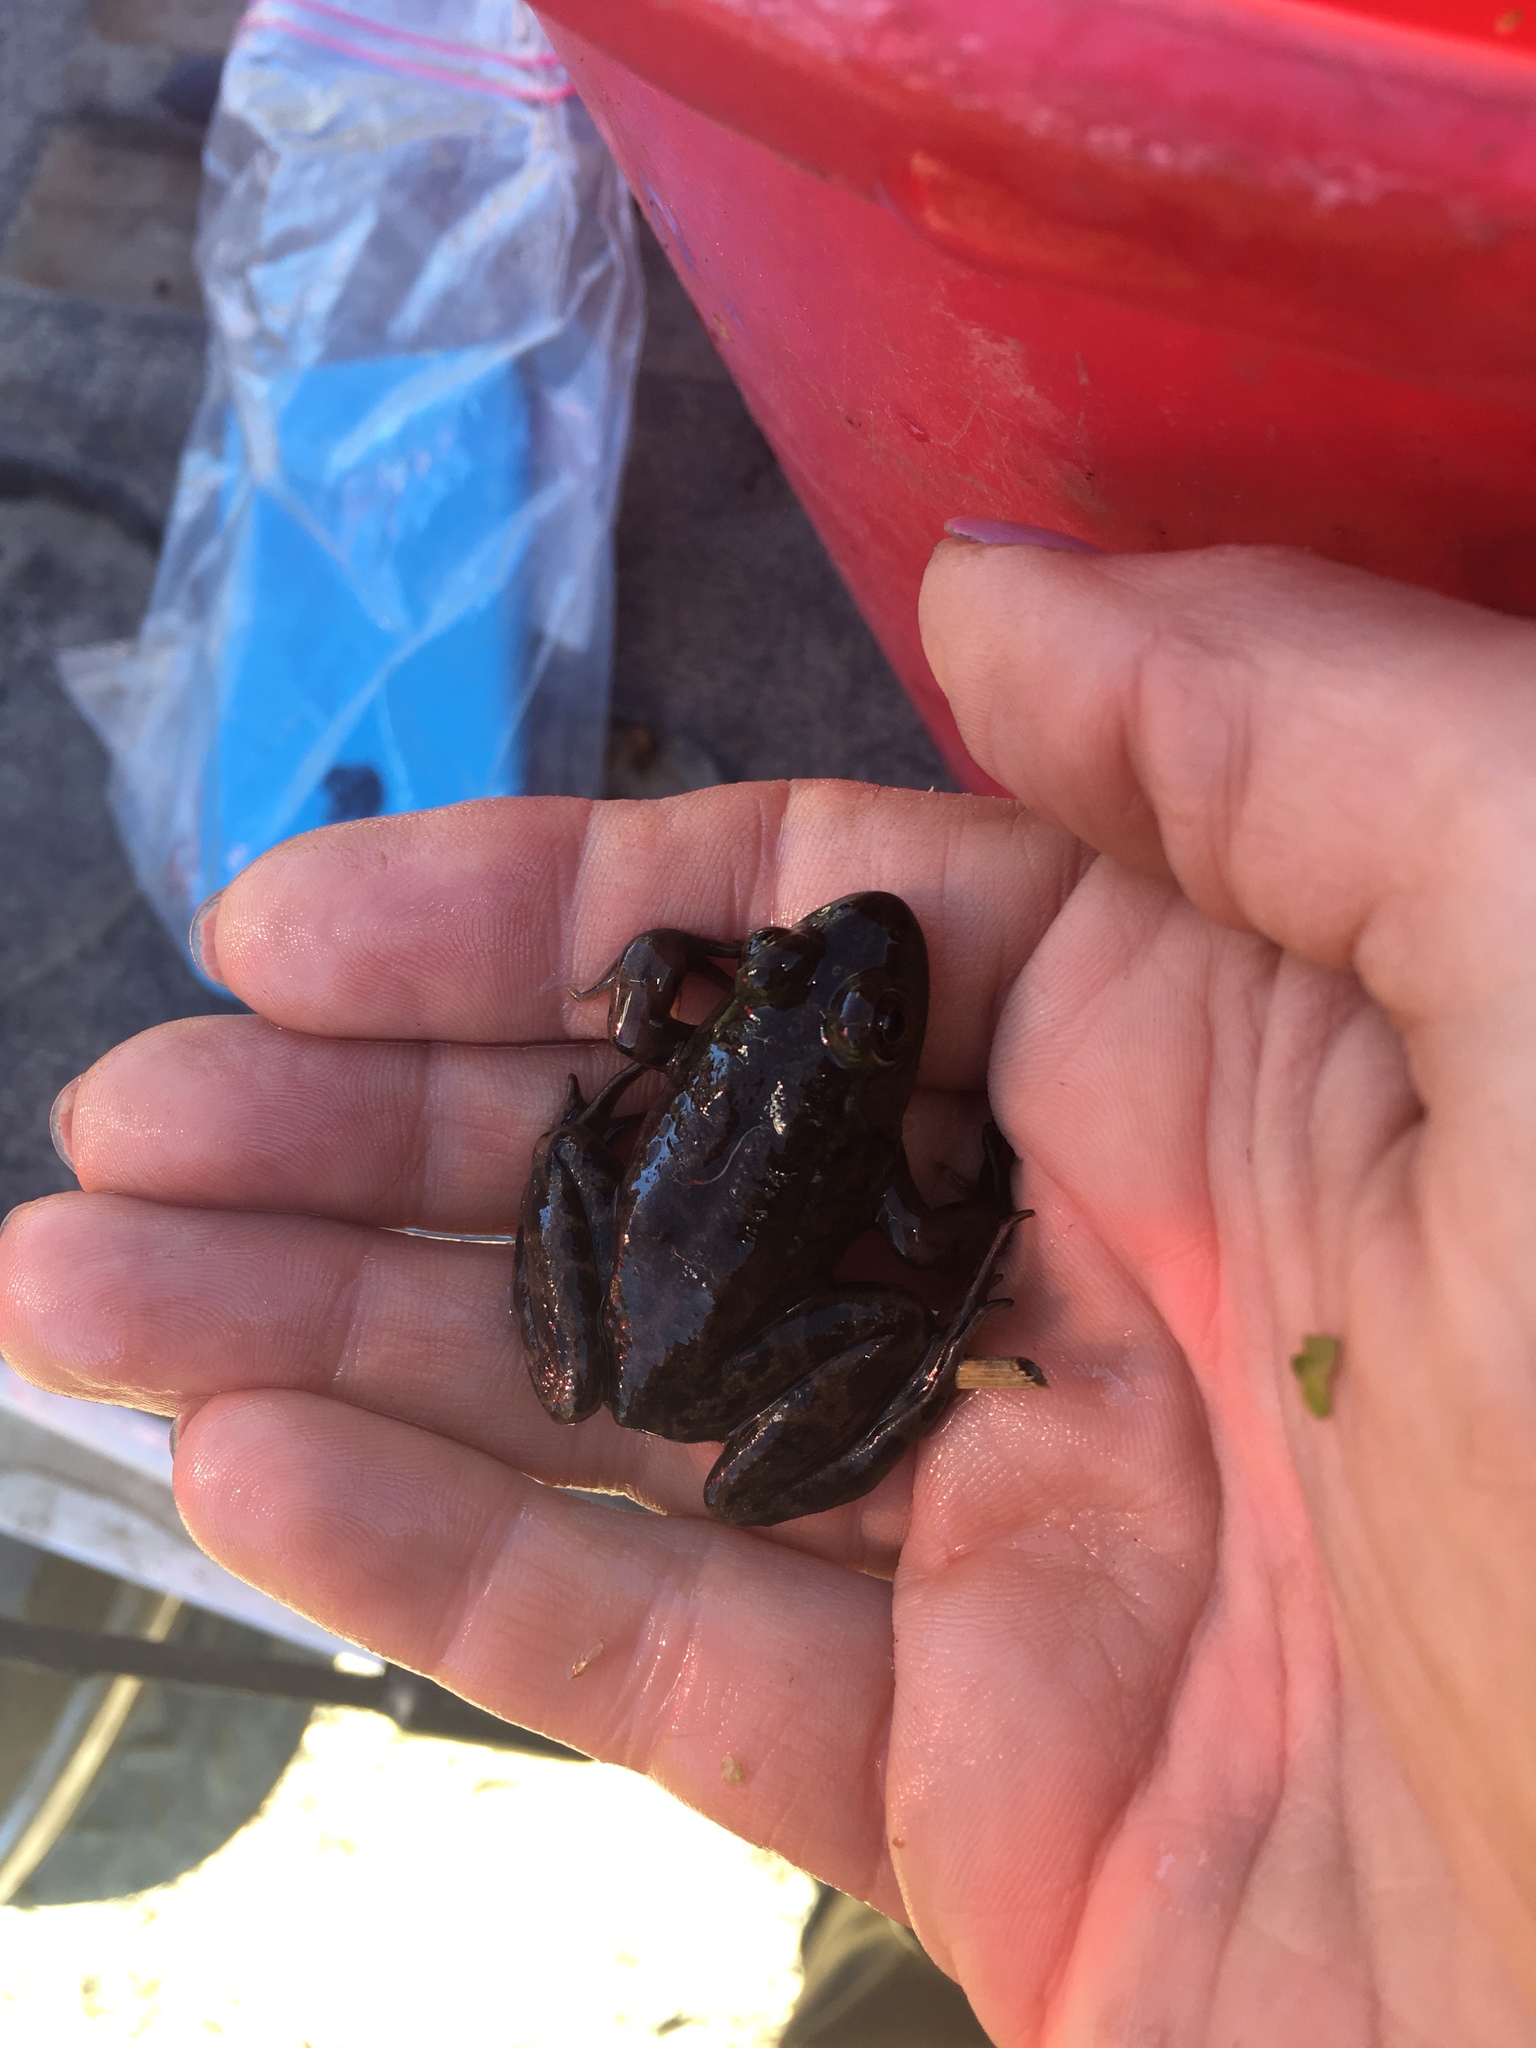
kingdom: Animalia
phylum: Chordata
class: Amphibia
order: Anura
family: Ranidae
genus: Lithobates
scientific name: Lithobates septentrionalis
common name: Mink frog
